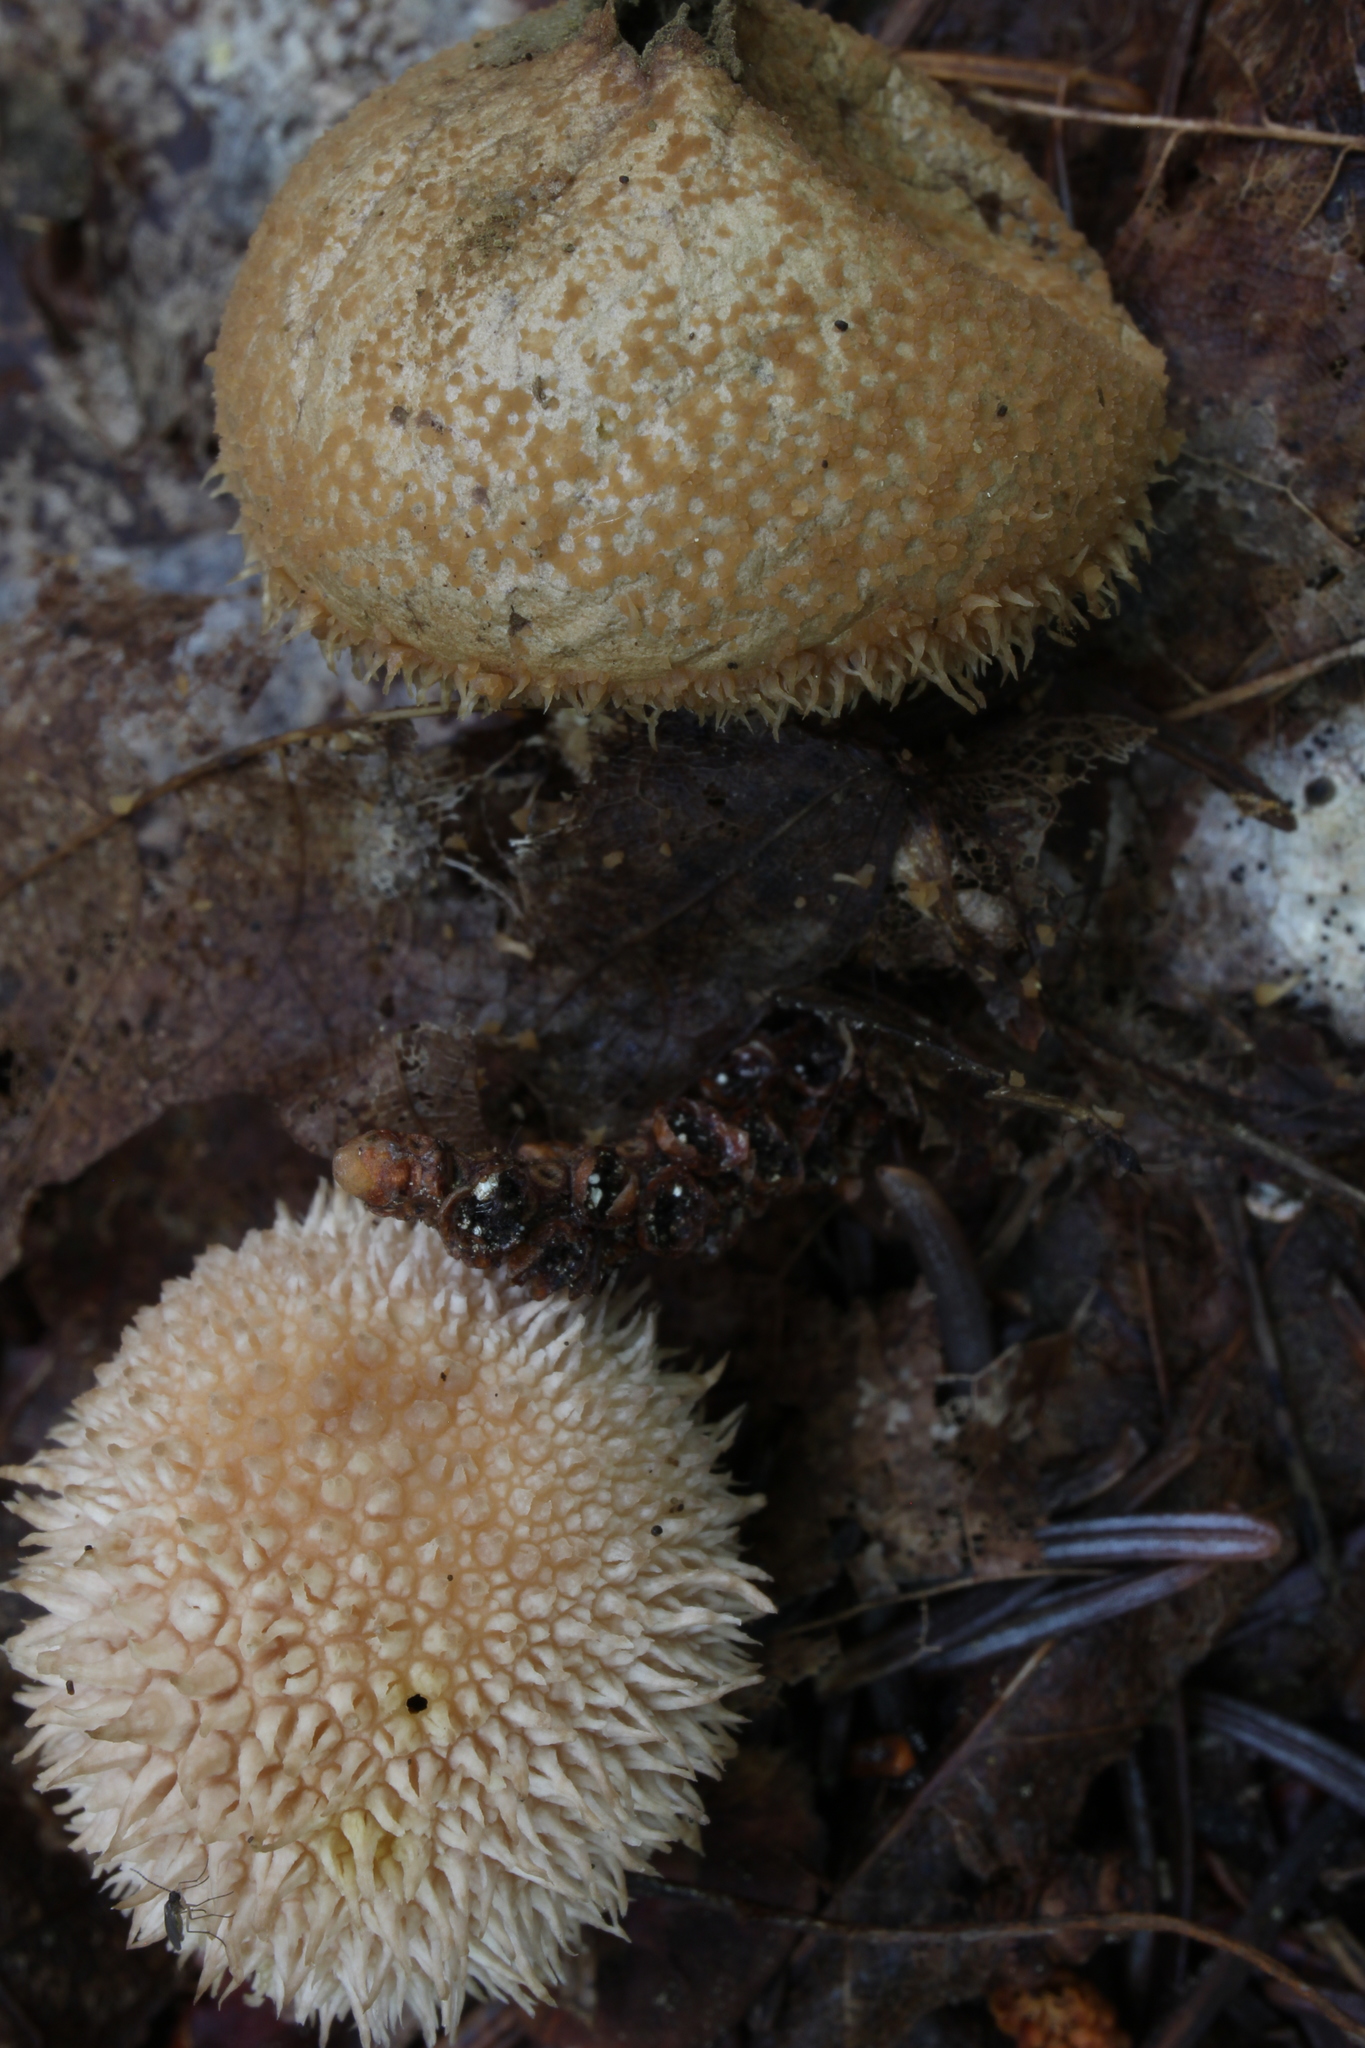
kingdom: Fungi
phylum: Basidiomycota
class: Agaricomycetes
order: Agaricales
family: Lycoperdaceae
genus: Lycoperdon
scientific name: Lycoperdon subincarnatum
